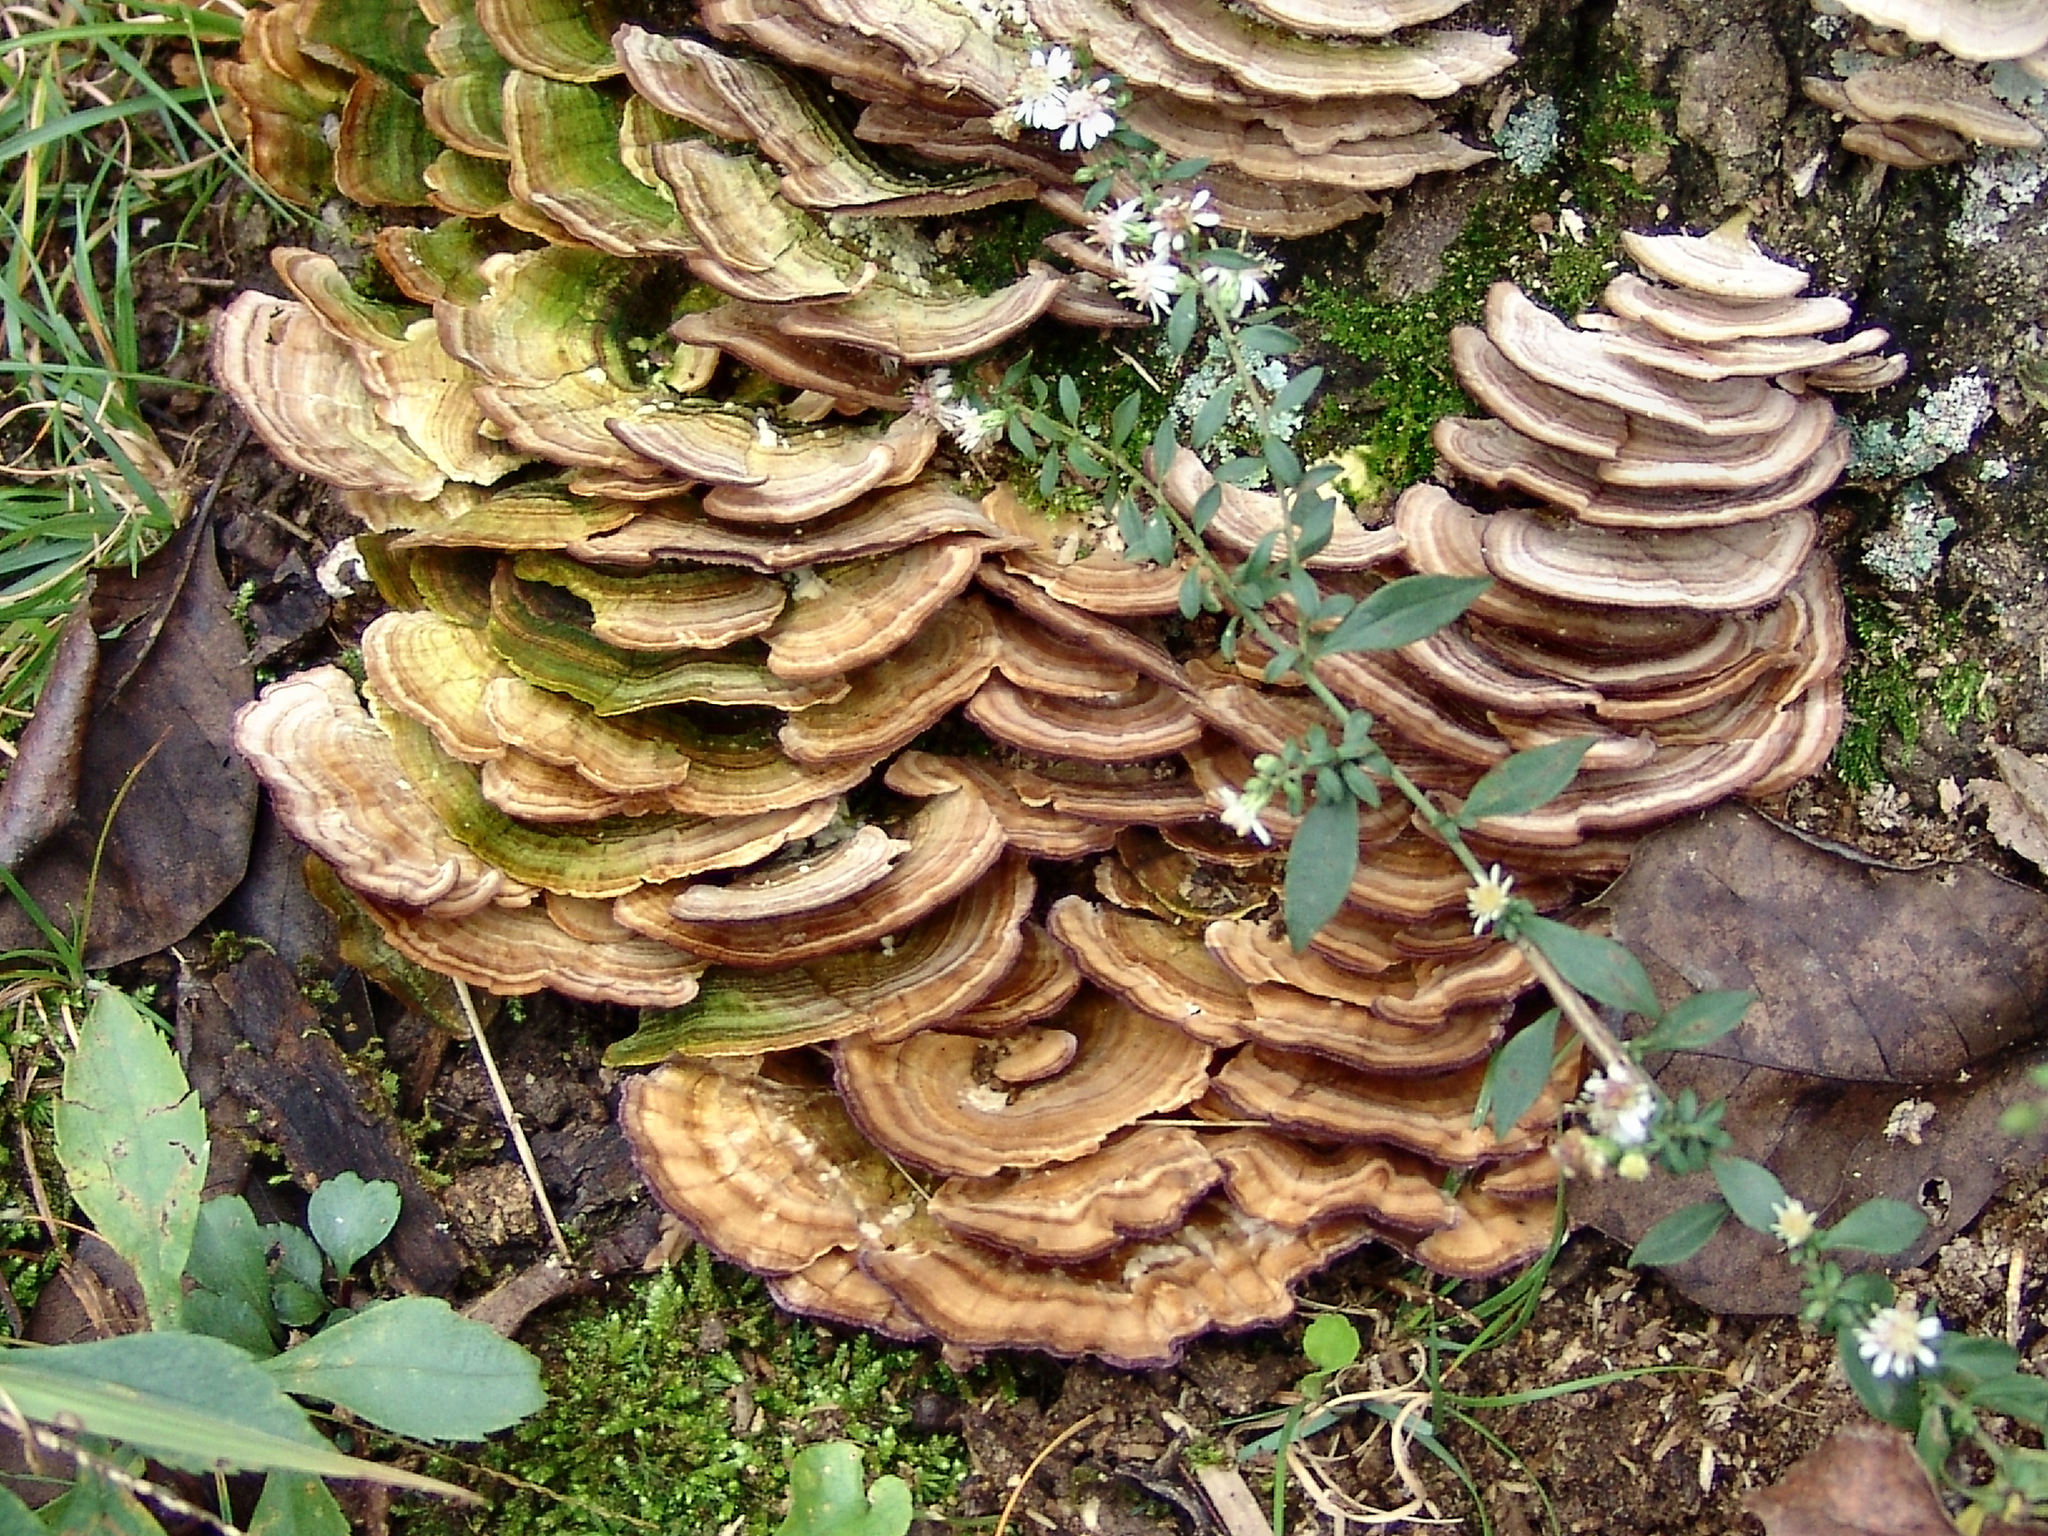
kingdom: Fungi
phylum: Basidiomycota
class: Agaricomycetes
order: Hymenochaetales
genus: Trichaptum
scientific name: Trichaptum biforme
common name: Violet-toothed polypore
